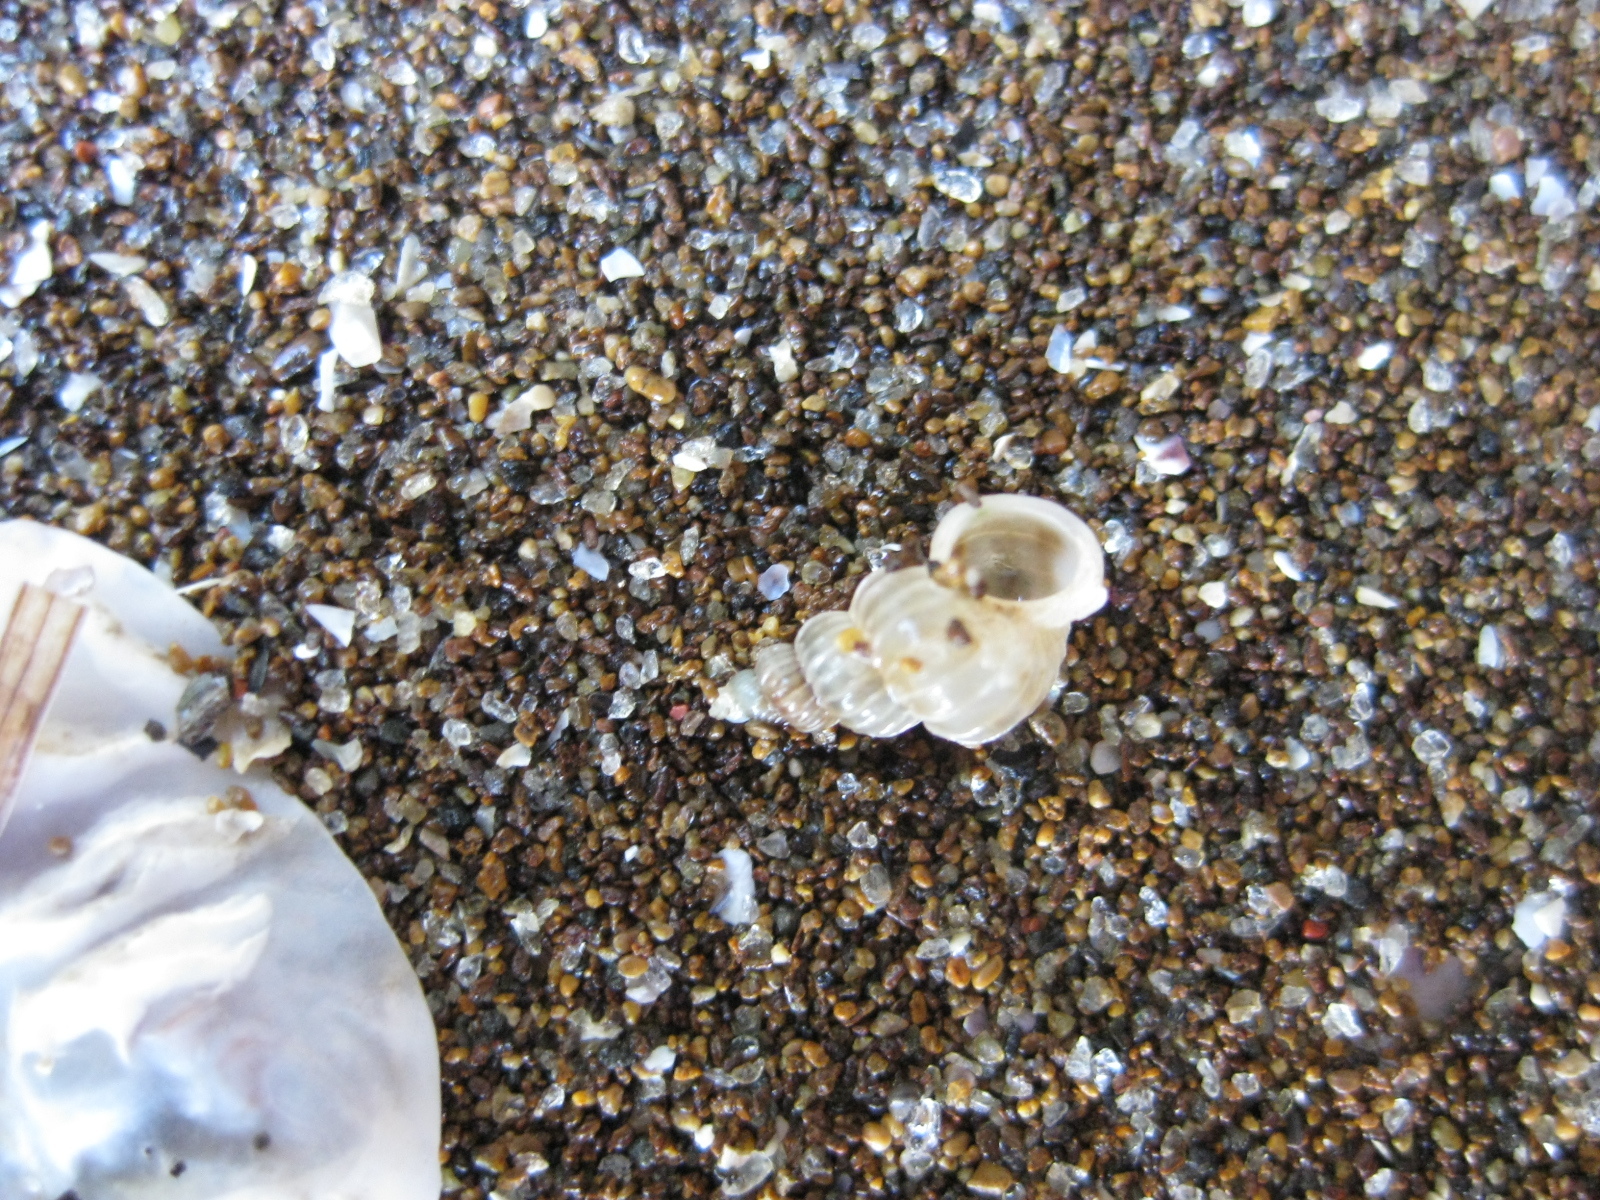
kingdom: Animalia
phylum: Mollusca
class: Gastropoda
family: Epitoniidae
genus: Epitonium
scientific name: Epitonium tenellum
